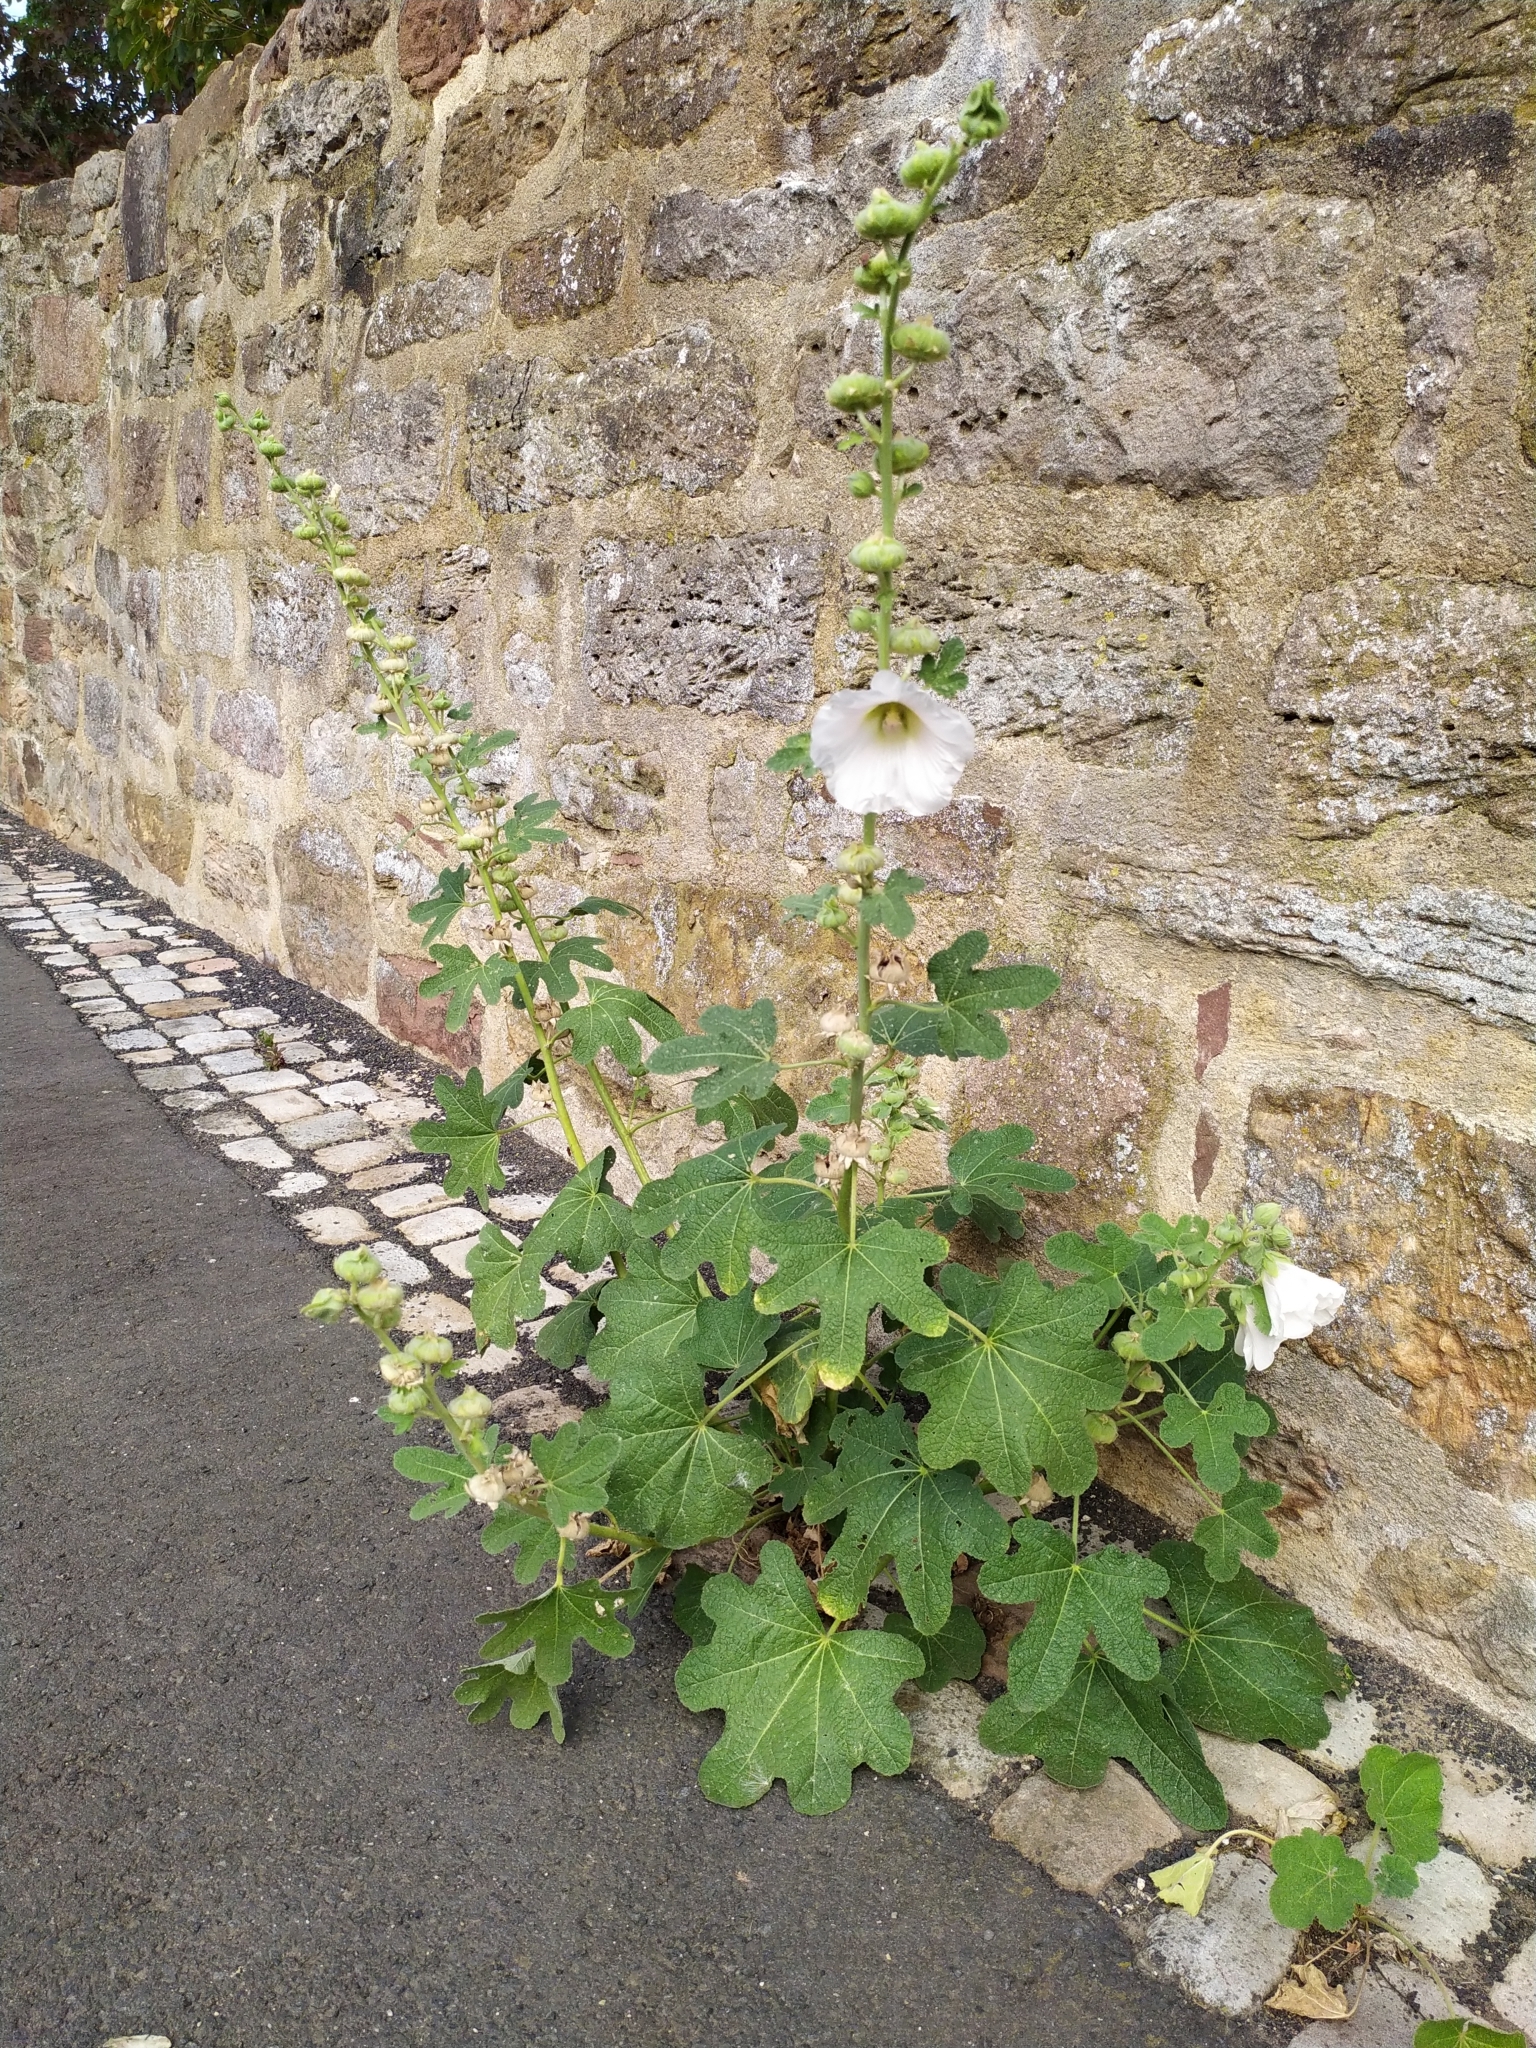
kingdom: Plantae
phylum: Tracheophyta
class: Magnoliopsida
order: Malvales
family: Malvaceae
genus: Alcea
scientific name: Alcea rosea
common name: Hollyhock
